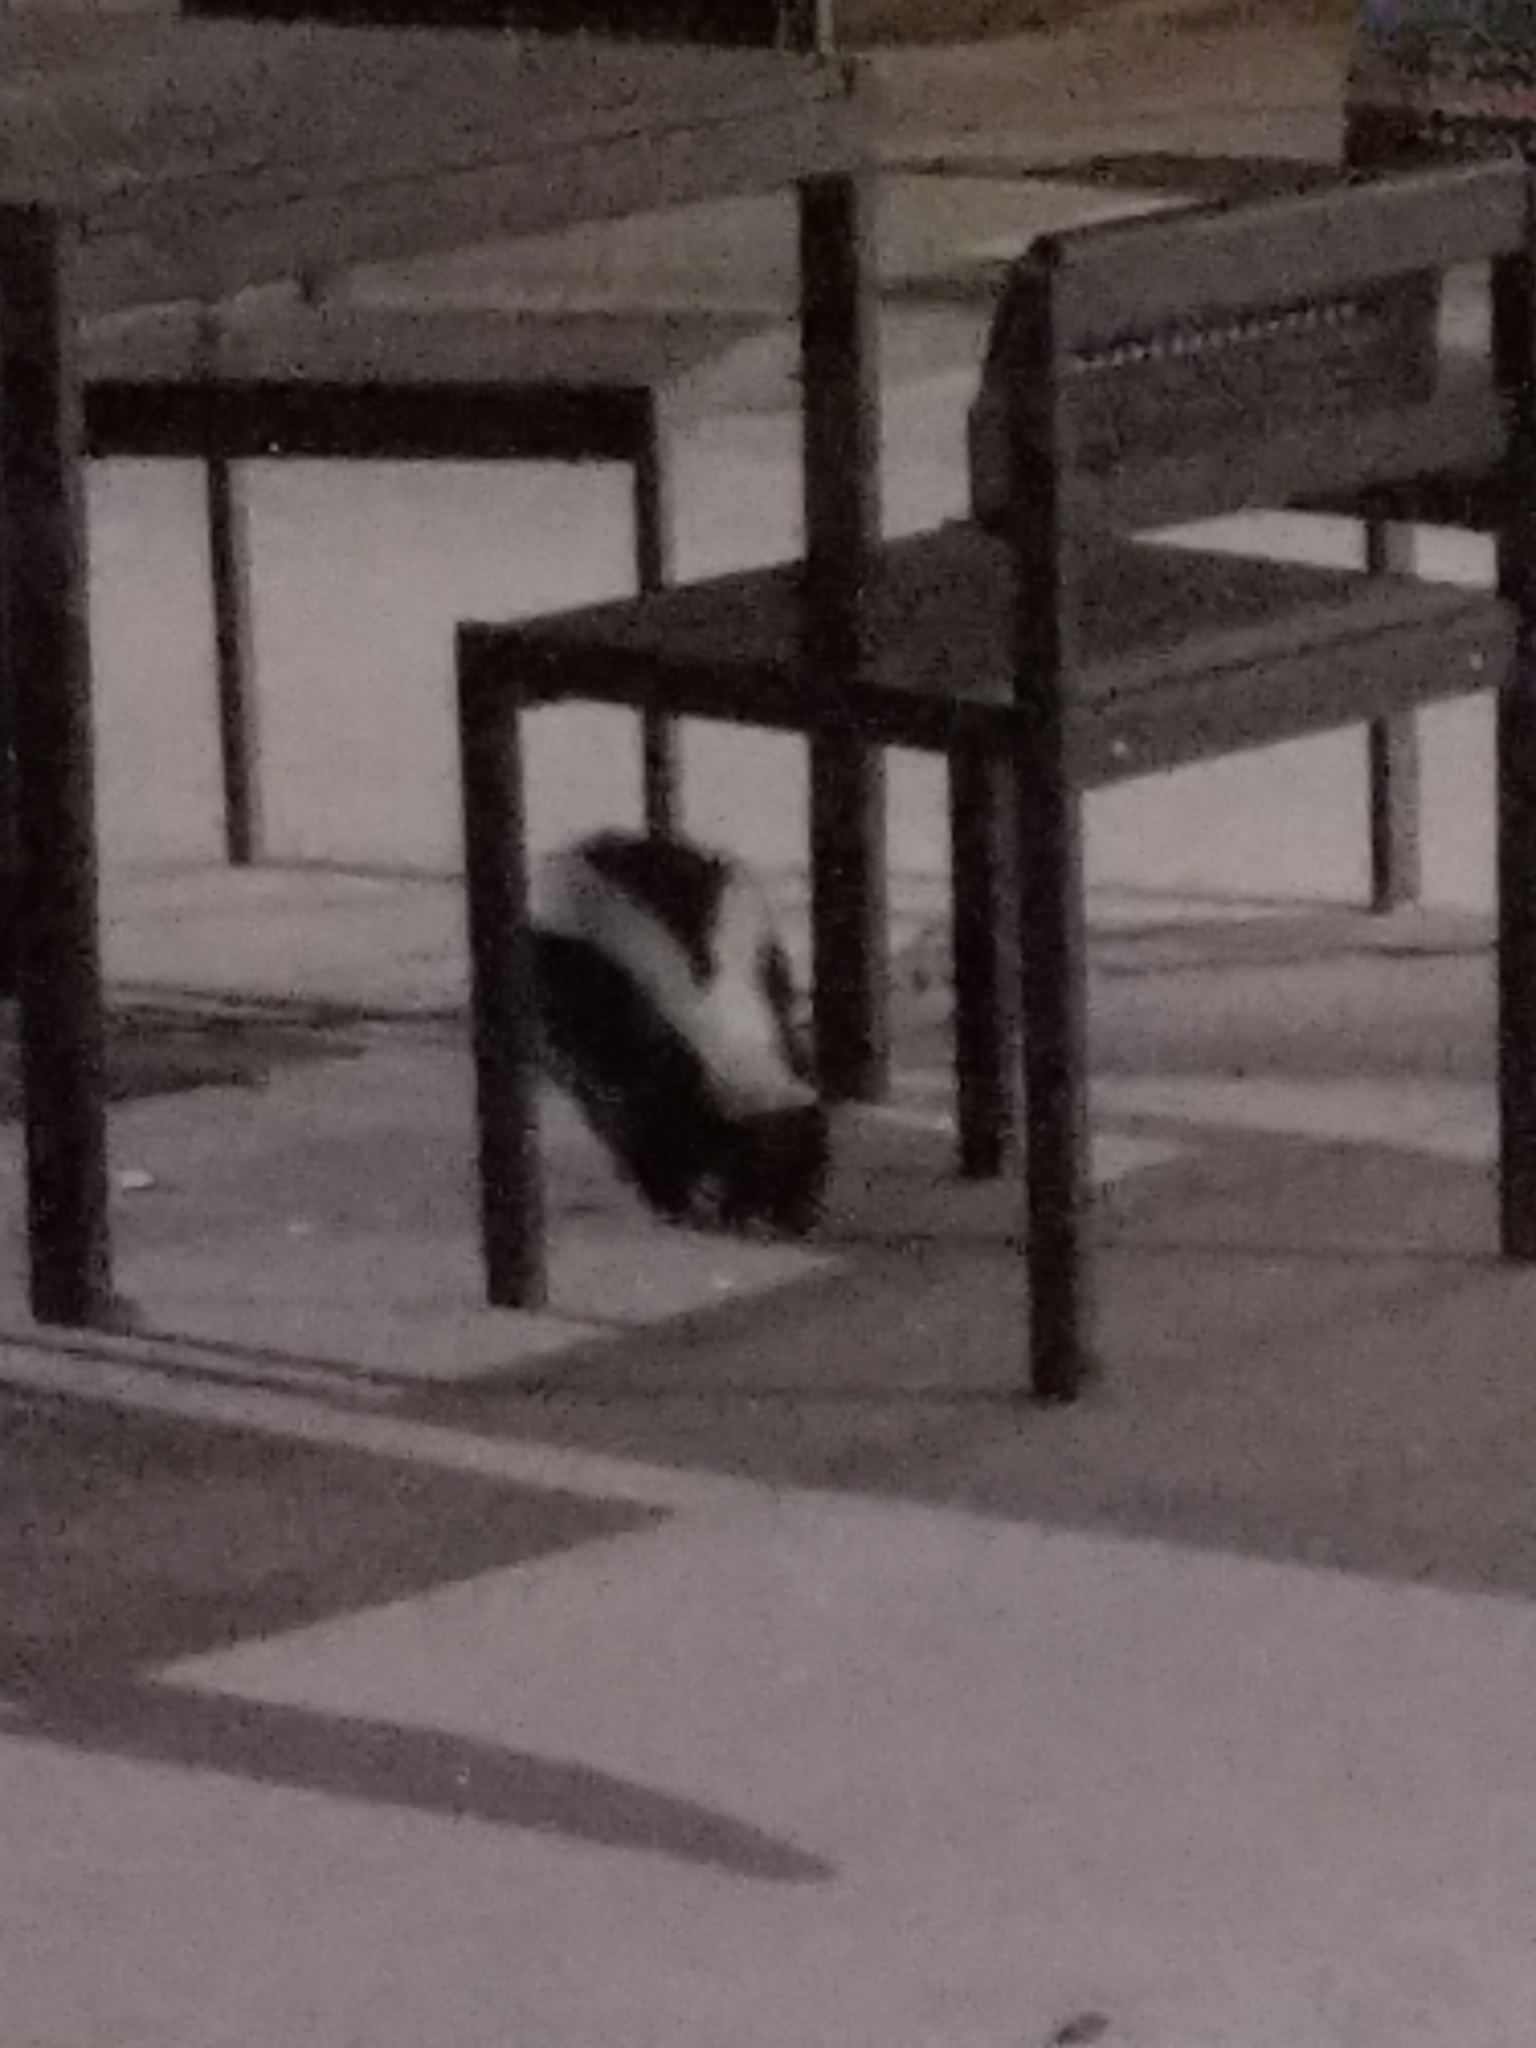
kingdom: Animalia
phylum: Chordata
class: Mammalia
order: Carnivora
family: Mephitidae
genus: Mephitis
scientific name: Mephitis mephitis
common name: Striped skunk
